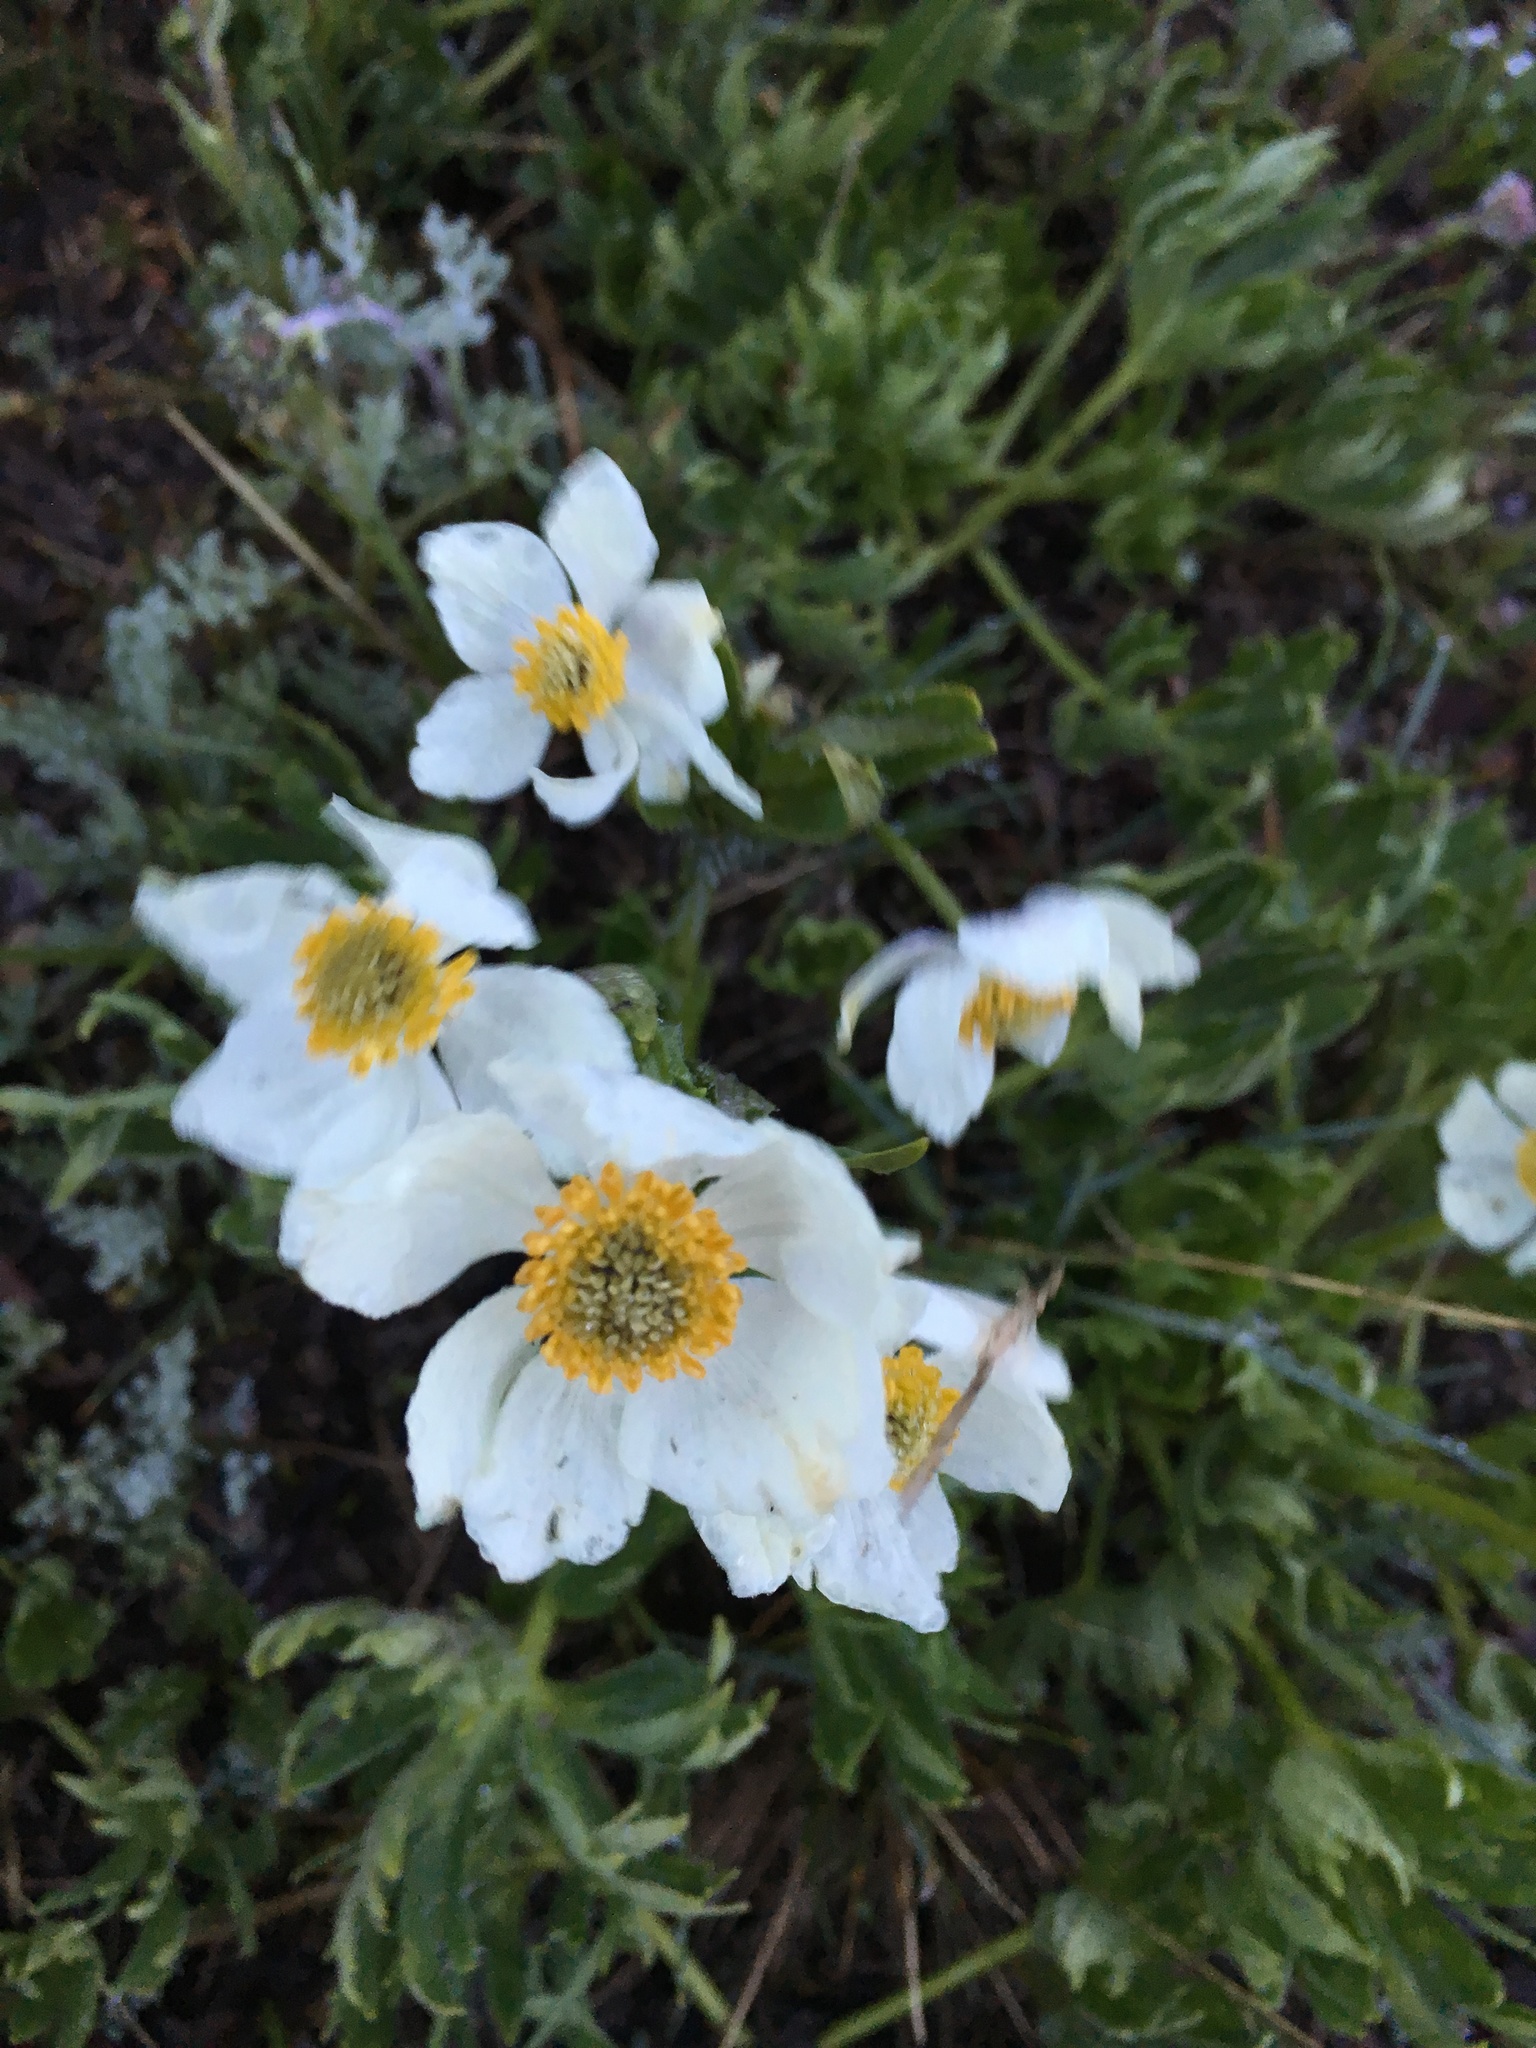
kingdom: Plantae
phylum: Tracheophyta
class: Magnoliopsida
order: Ranunculales
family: Ranunculaceae
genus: Anemonastrum
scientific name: Anemonastrum narcissiflorum
